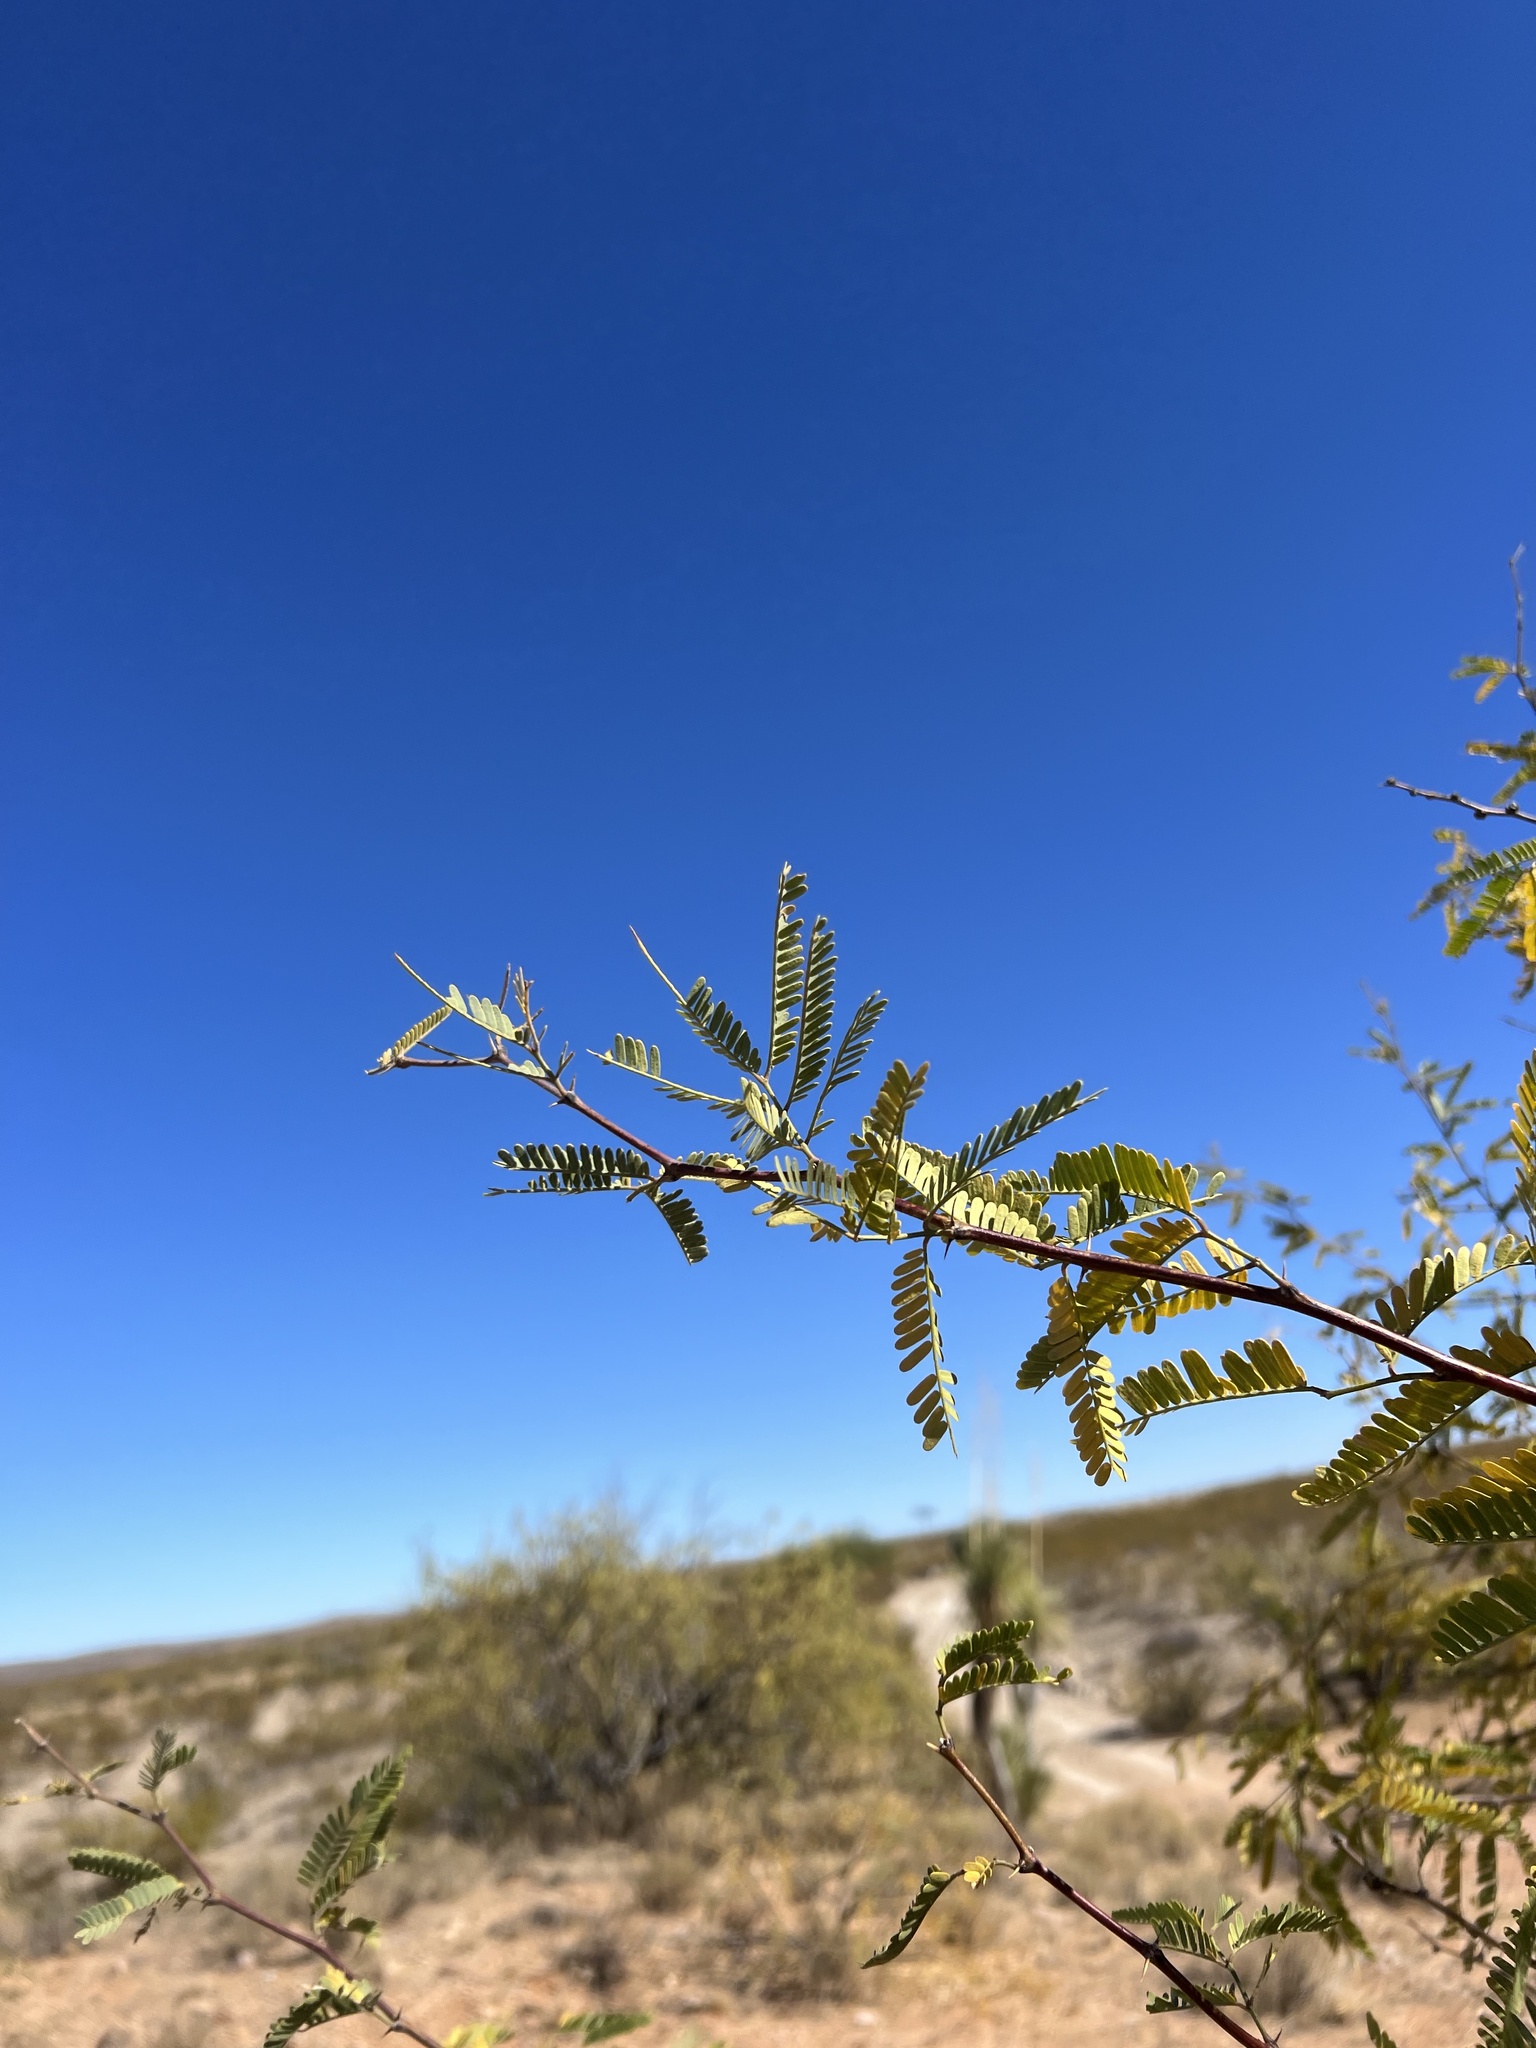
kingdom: Plantae
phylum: Tracheophyta
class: Magnoliopsida
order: Fabales
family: Fabaceae
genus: Prosopis
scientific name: Prosopis velutina
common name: Velvet mesquite
